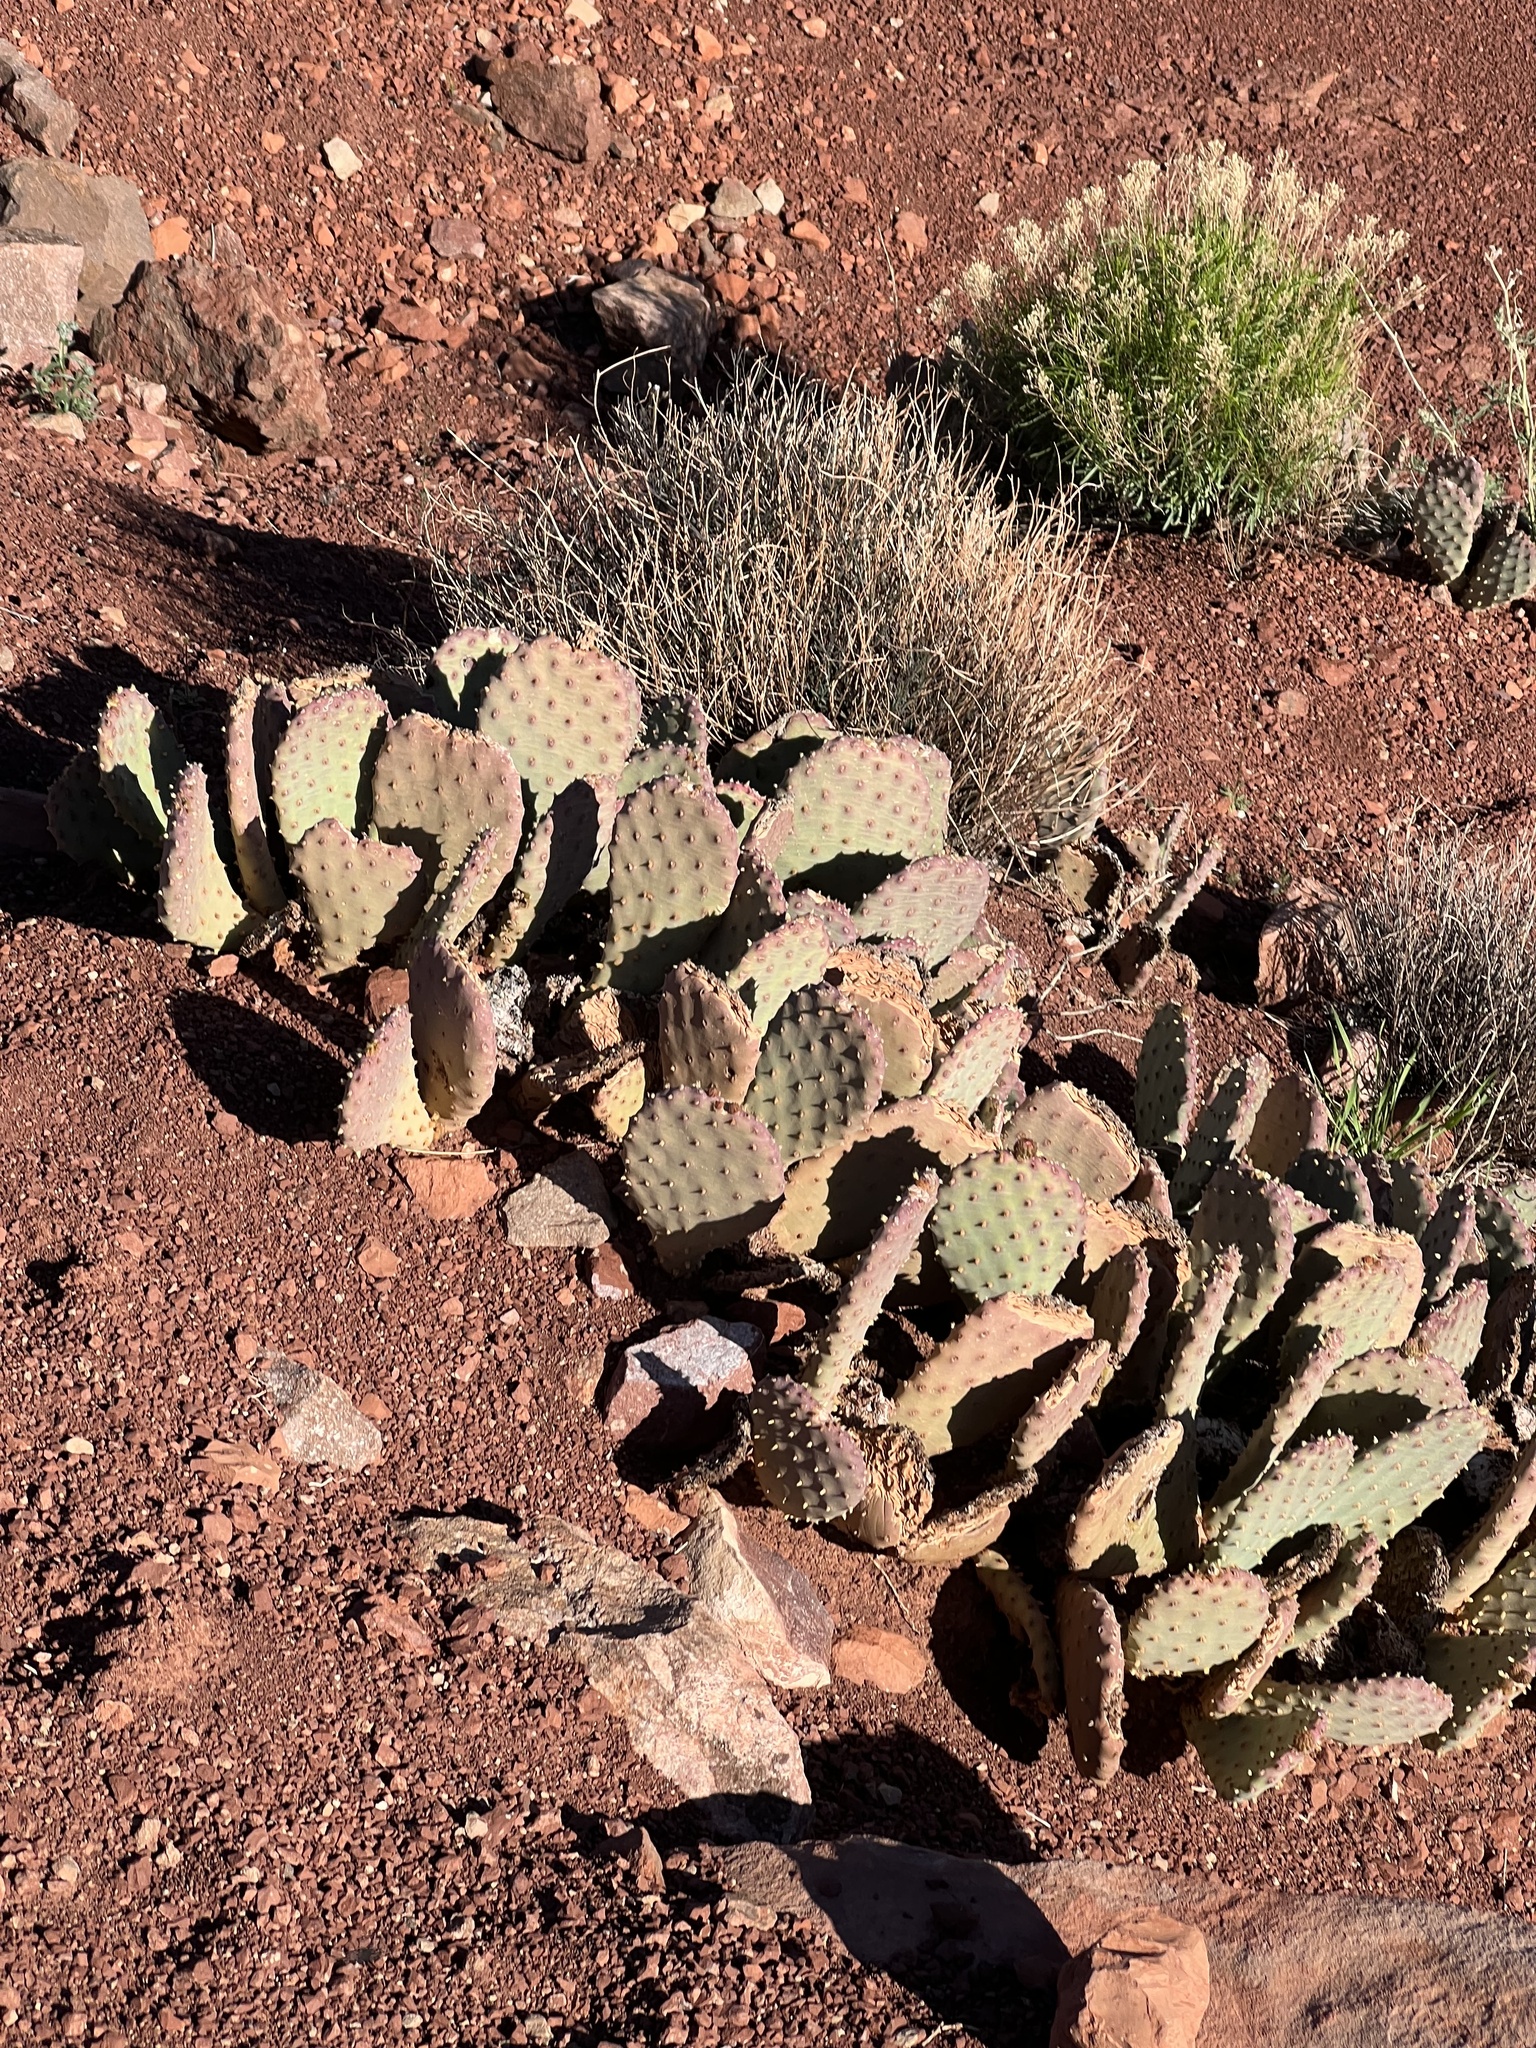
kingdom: Plantae
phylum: Tracheophyta
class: Magnoliopsida
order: Caryophyllales
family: Cactaceae
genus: Opuntia
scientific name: Opuntia basilaris
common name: Beavertail prickly-pear
